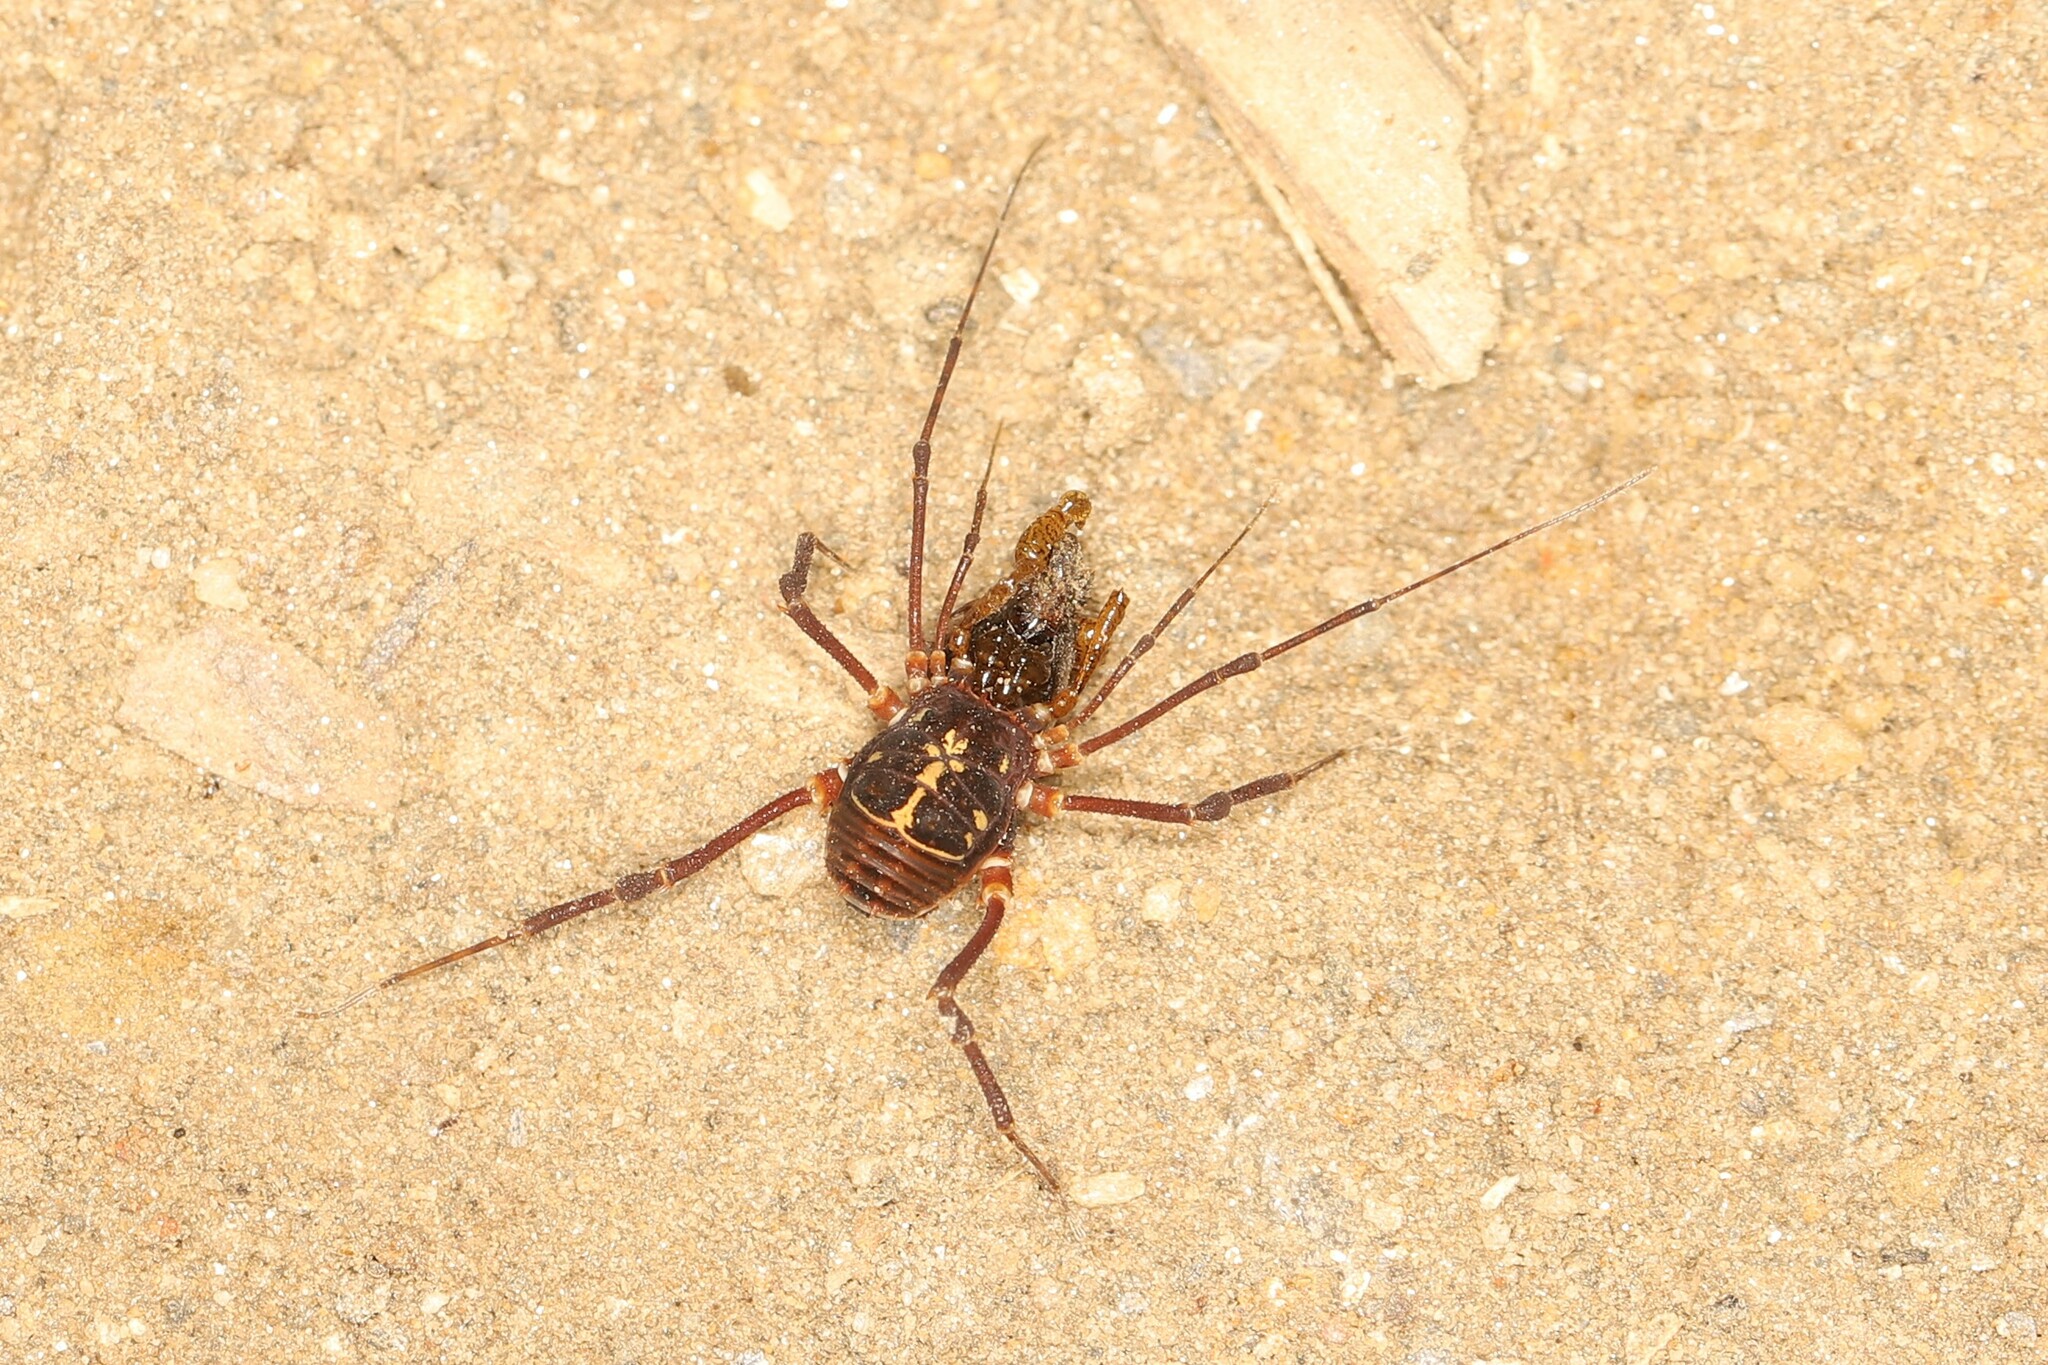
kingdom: Animalia
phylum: Arthropoda
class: Arachnida
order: Opiliones
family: Stygnidae
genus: Fortia
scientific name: Fortia jedi
